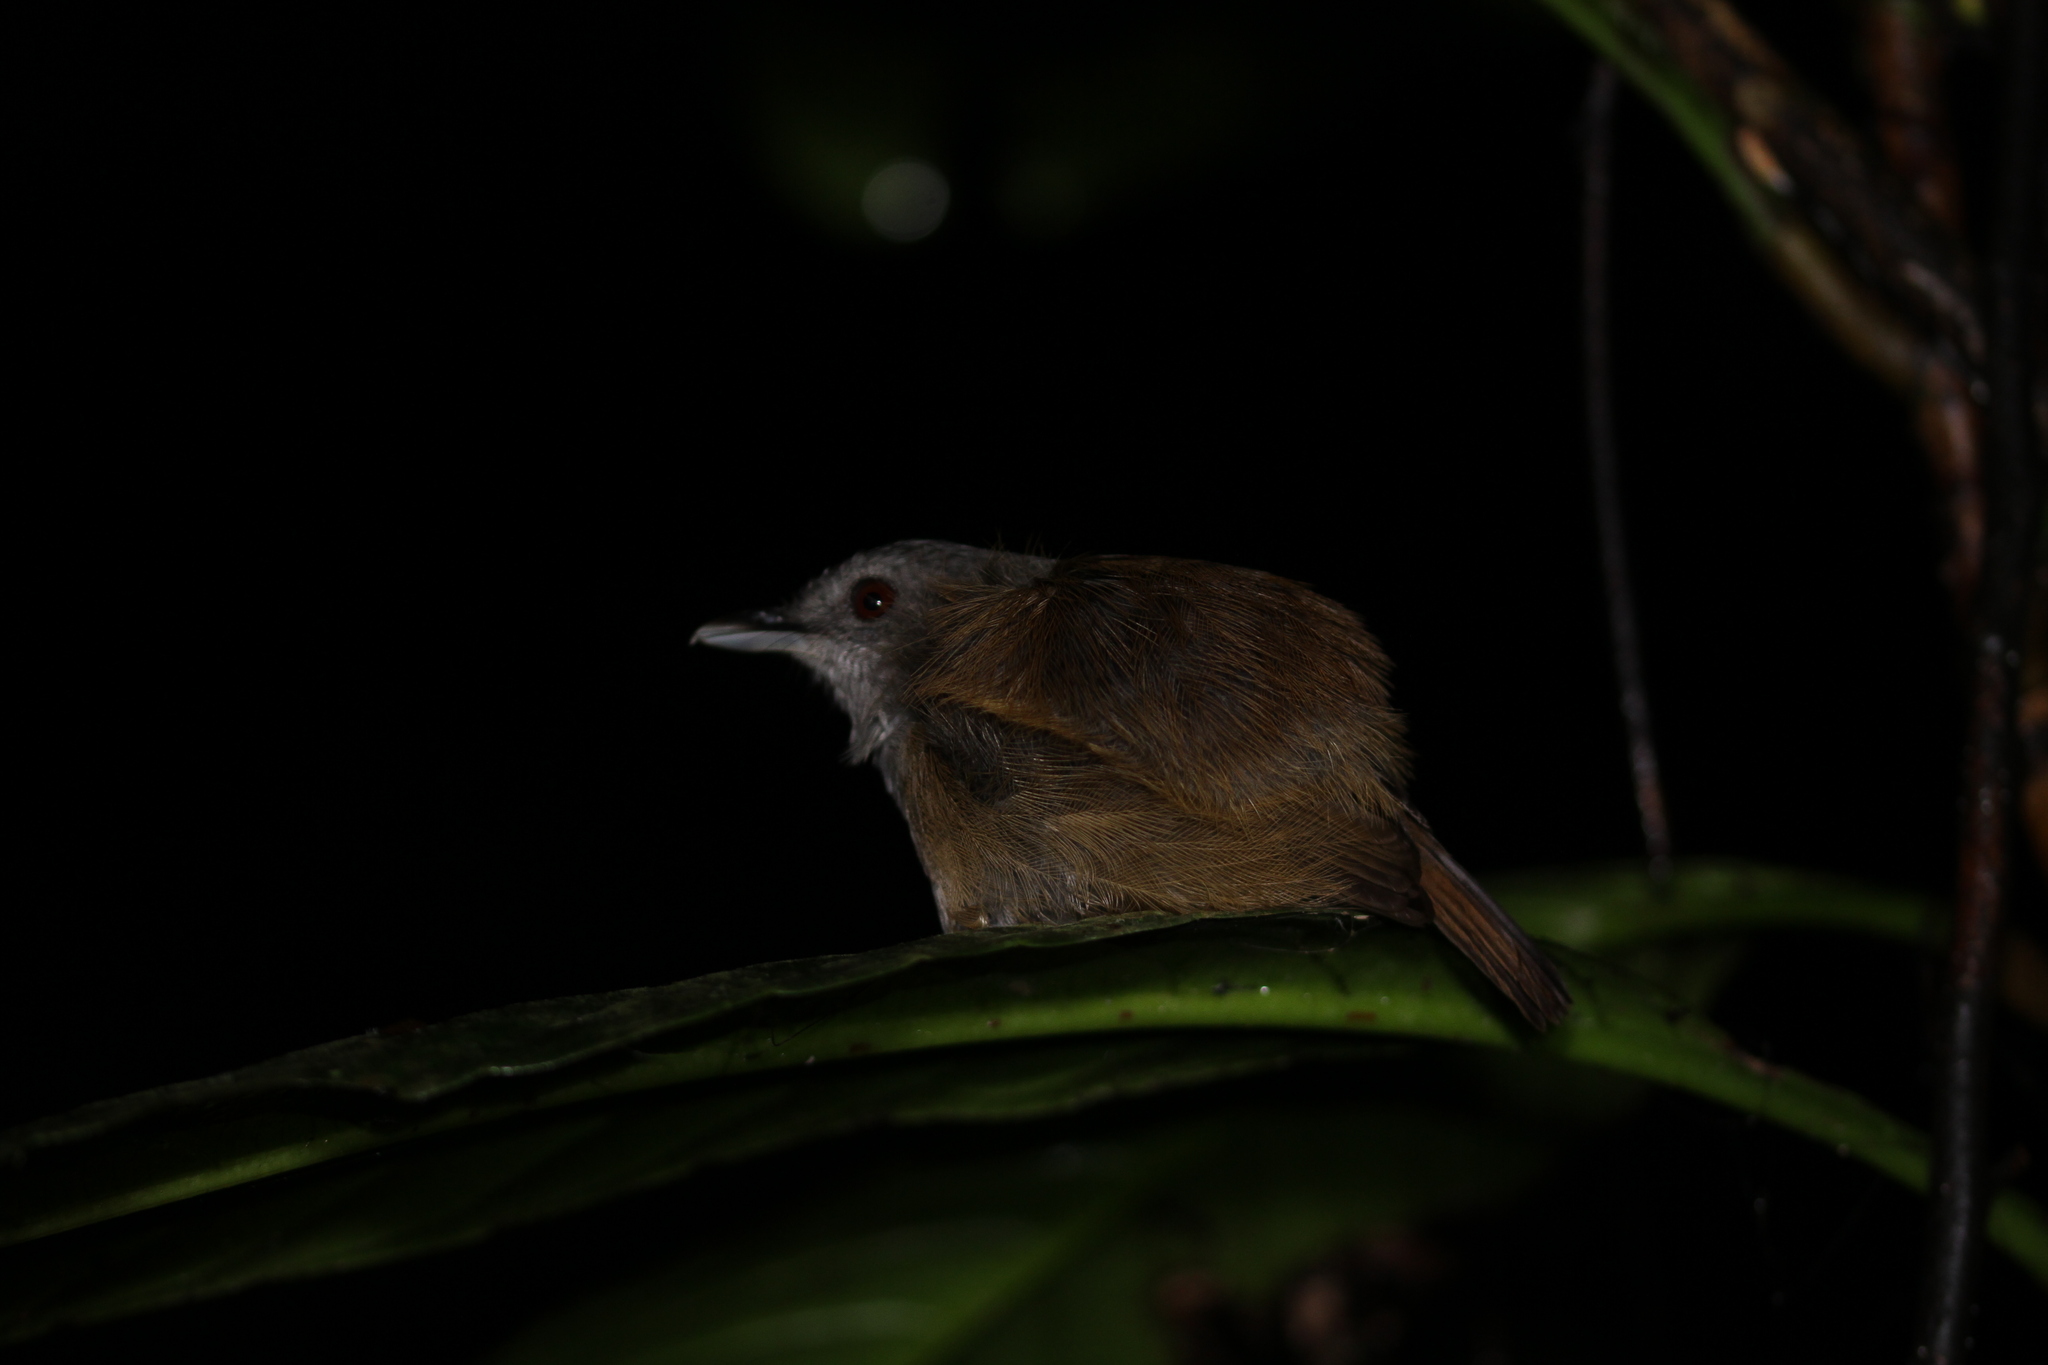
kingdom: Animalia
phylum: Chordata
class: Aves
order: Passeriformes
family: Pellorneidae
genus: Malacocincla
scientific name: Malacocincla sepiaria
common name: Horsfield's babbler
